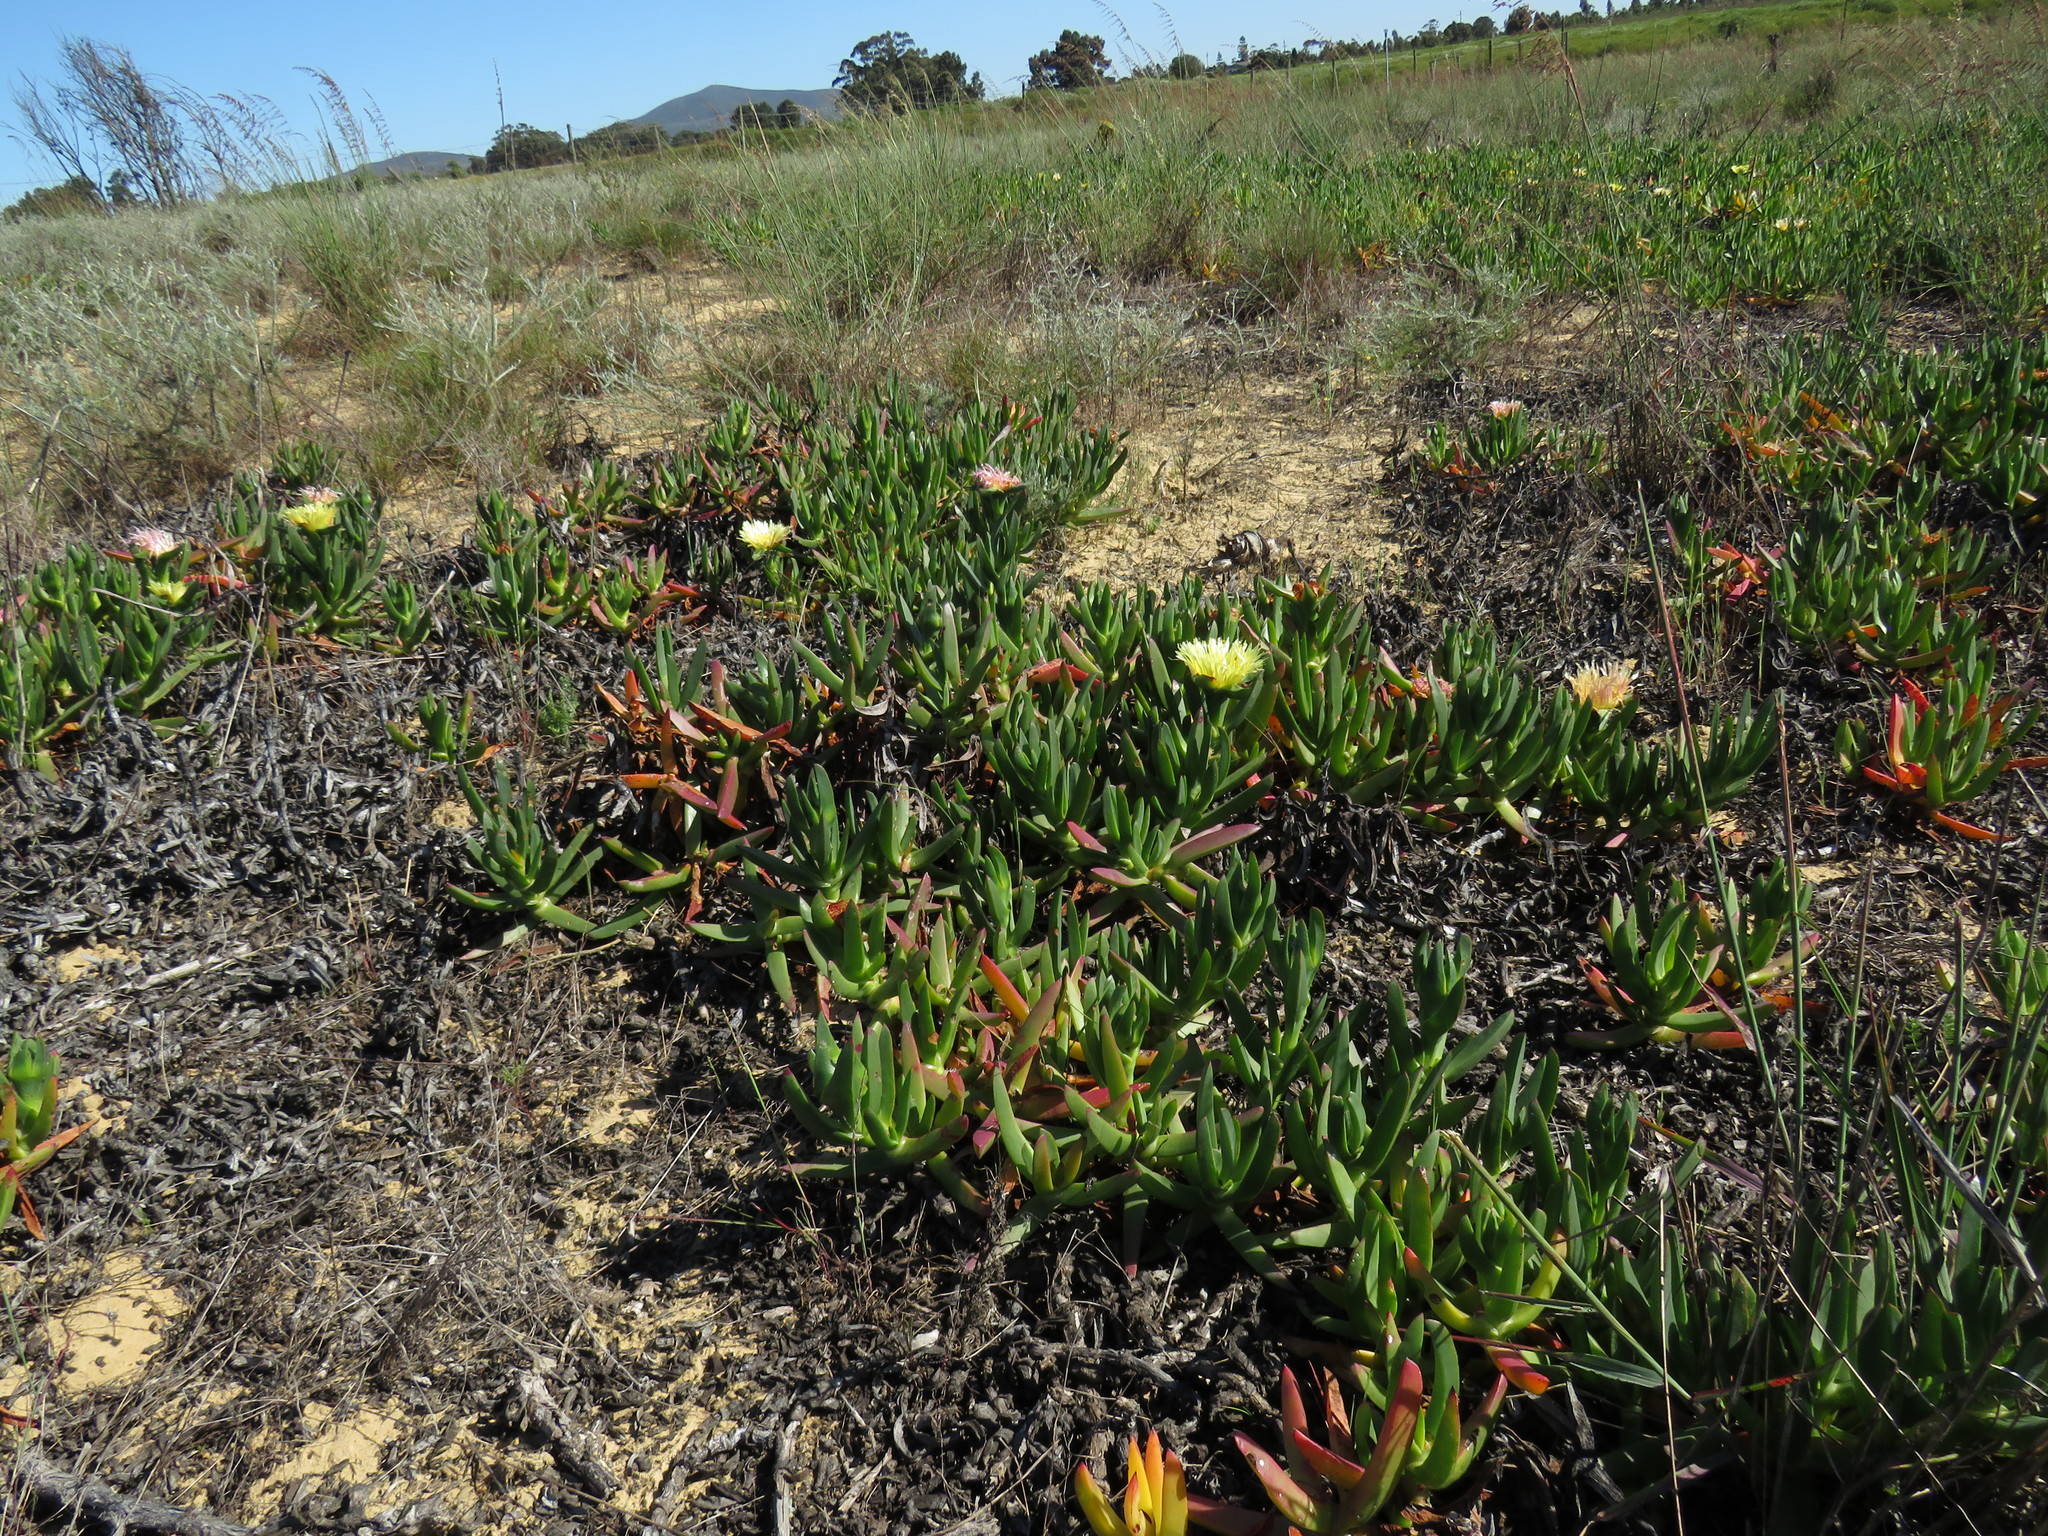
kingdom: Plantae
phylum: Tracheophyta
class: Magnoliopsida
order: Caryophyllales
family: Aizoaceae
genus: Carpobrotus
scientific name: Carpobrotus edulis
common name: Hottentot-fig
